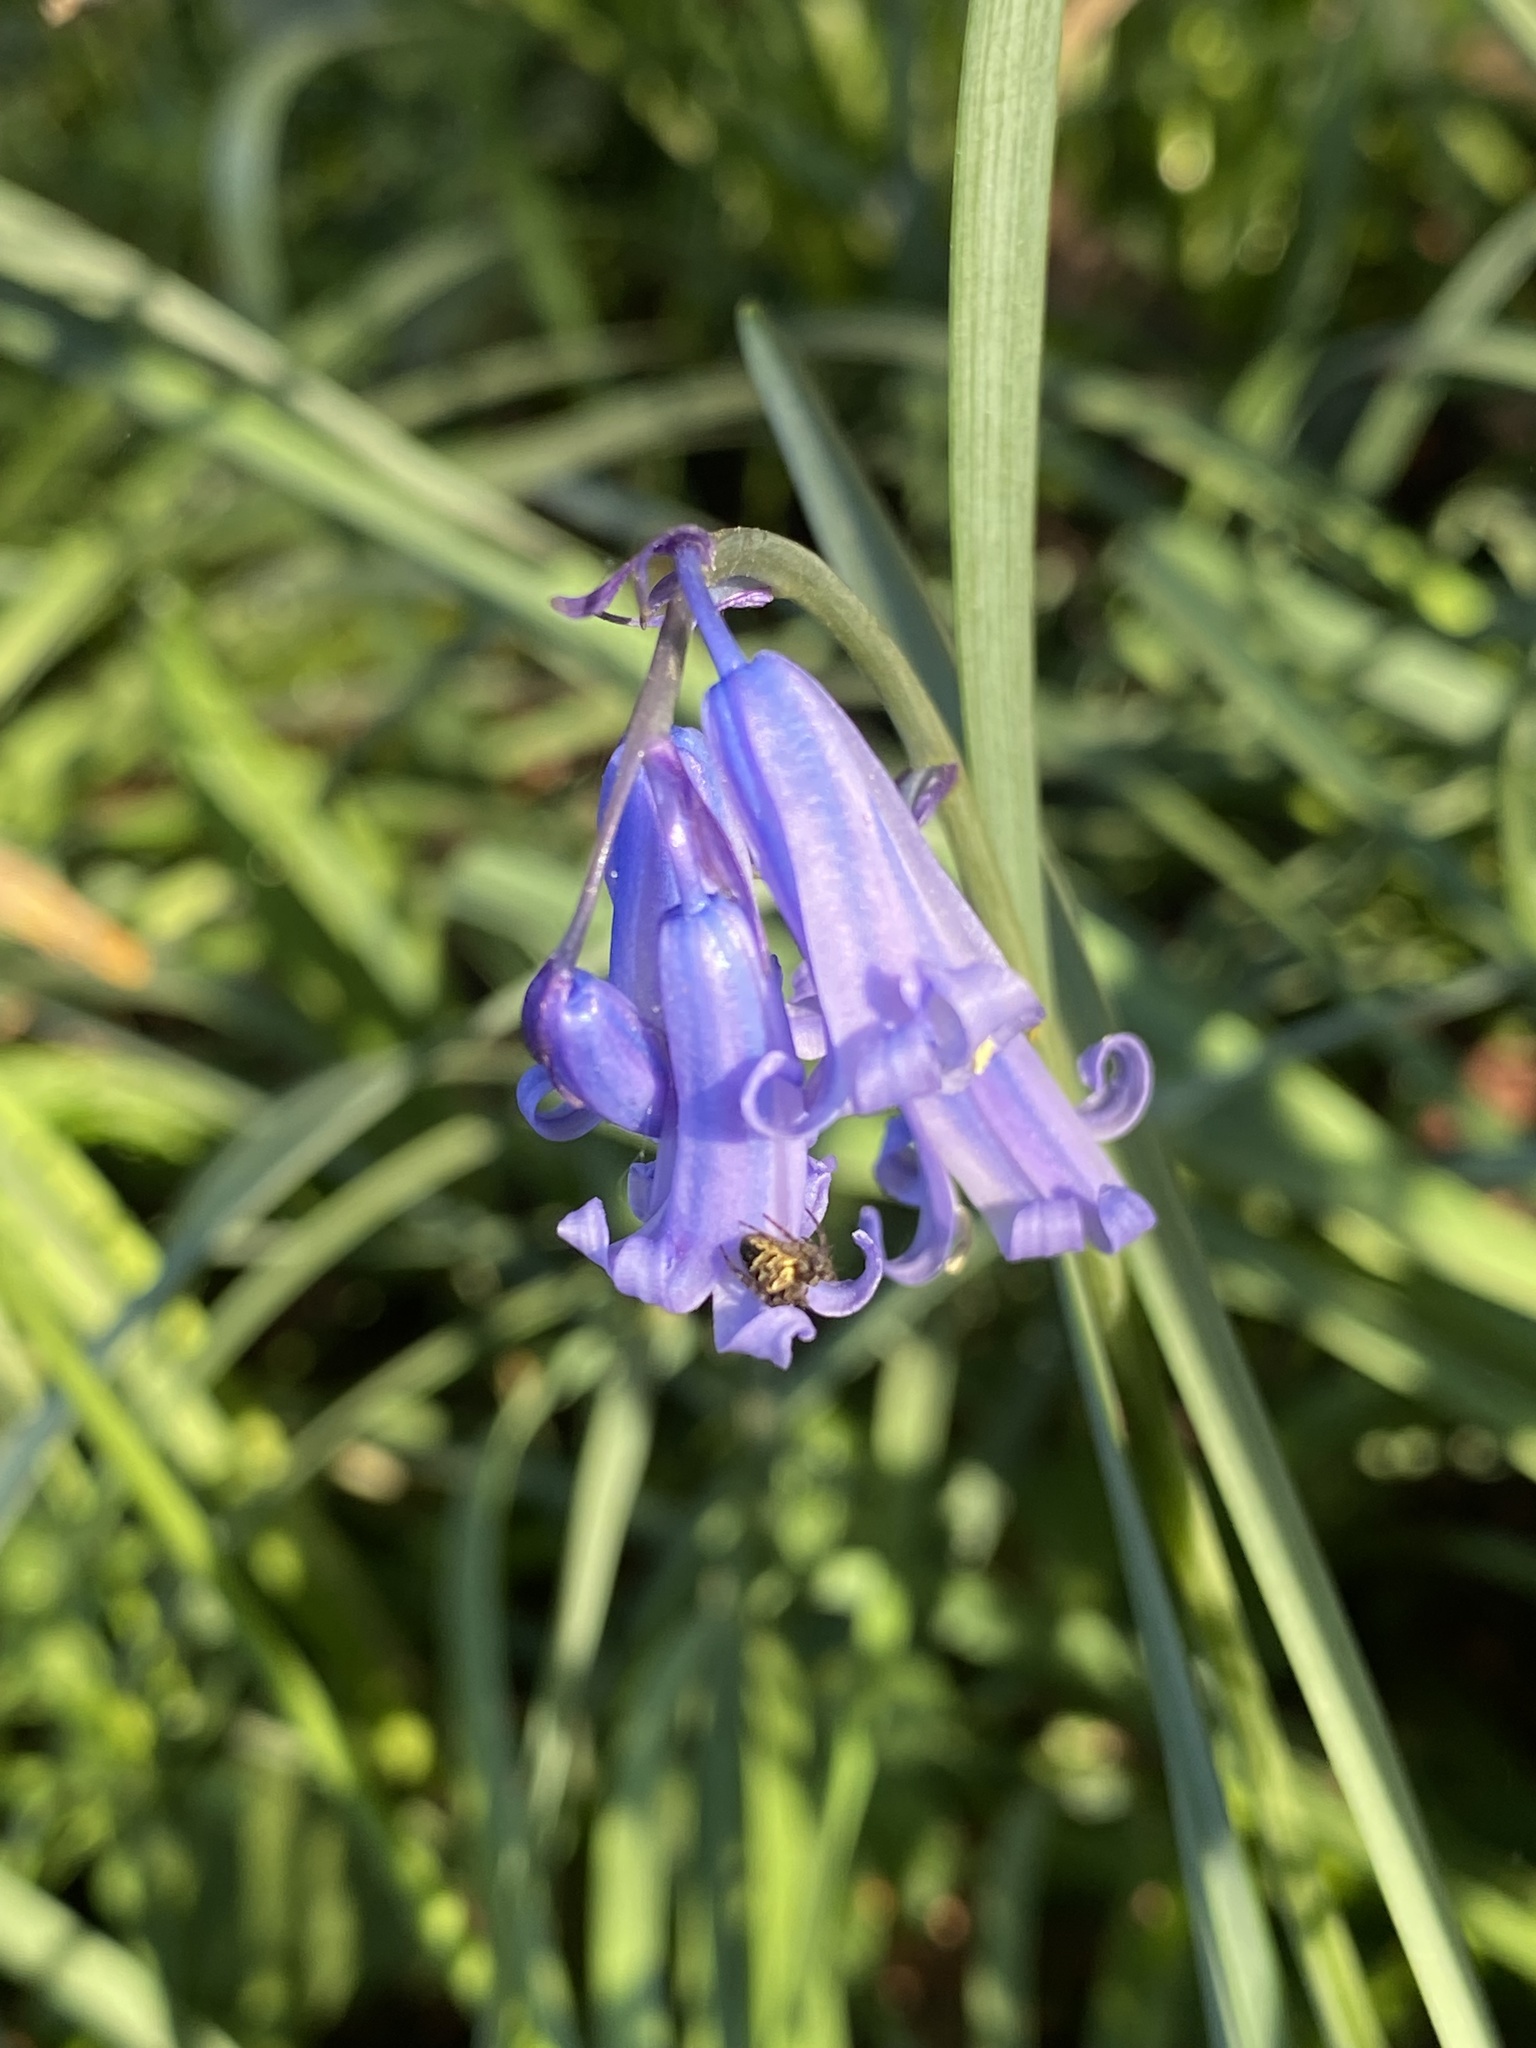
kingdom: Animalia
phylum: Arthropoda
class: Arachnida
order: Araneae
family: Araneidae
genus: Zilla
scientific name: Zilla diodia
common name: Zilla diodia
